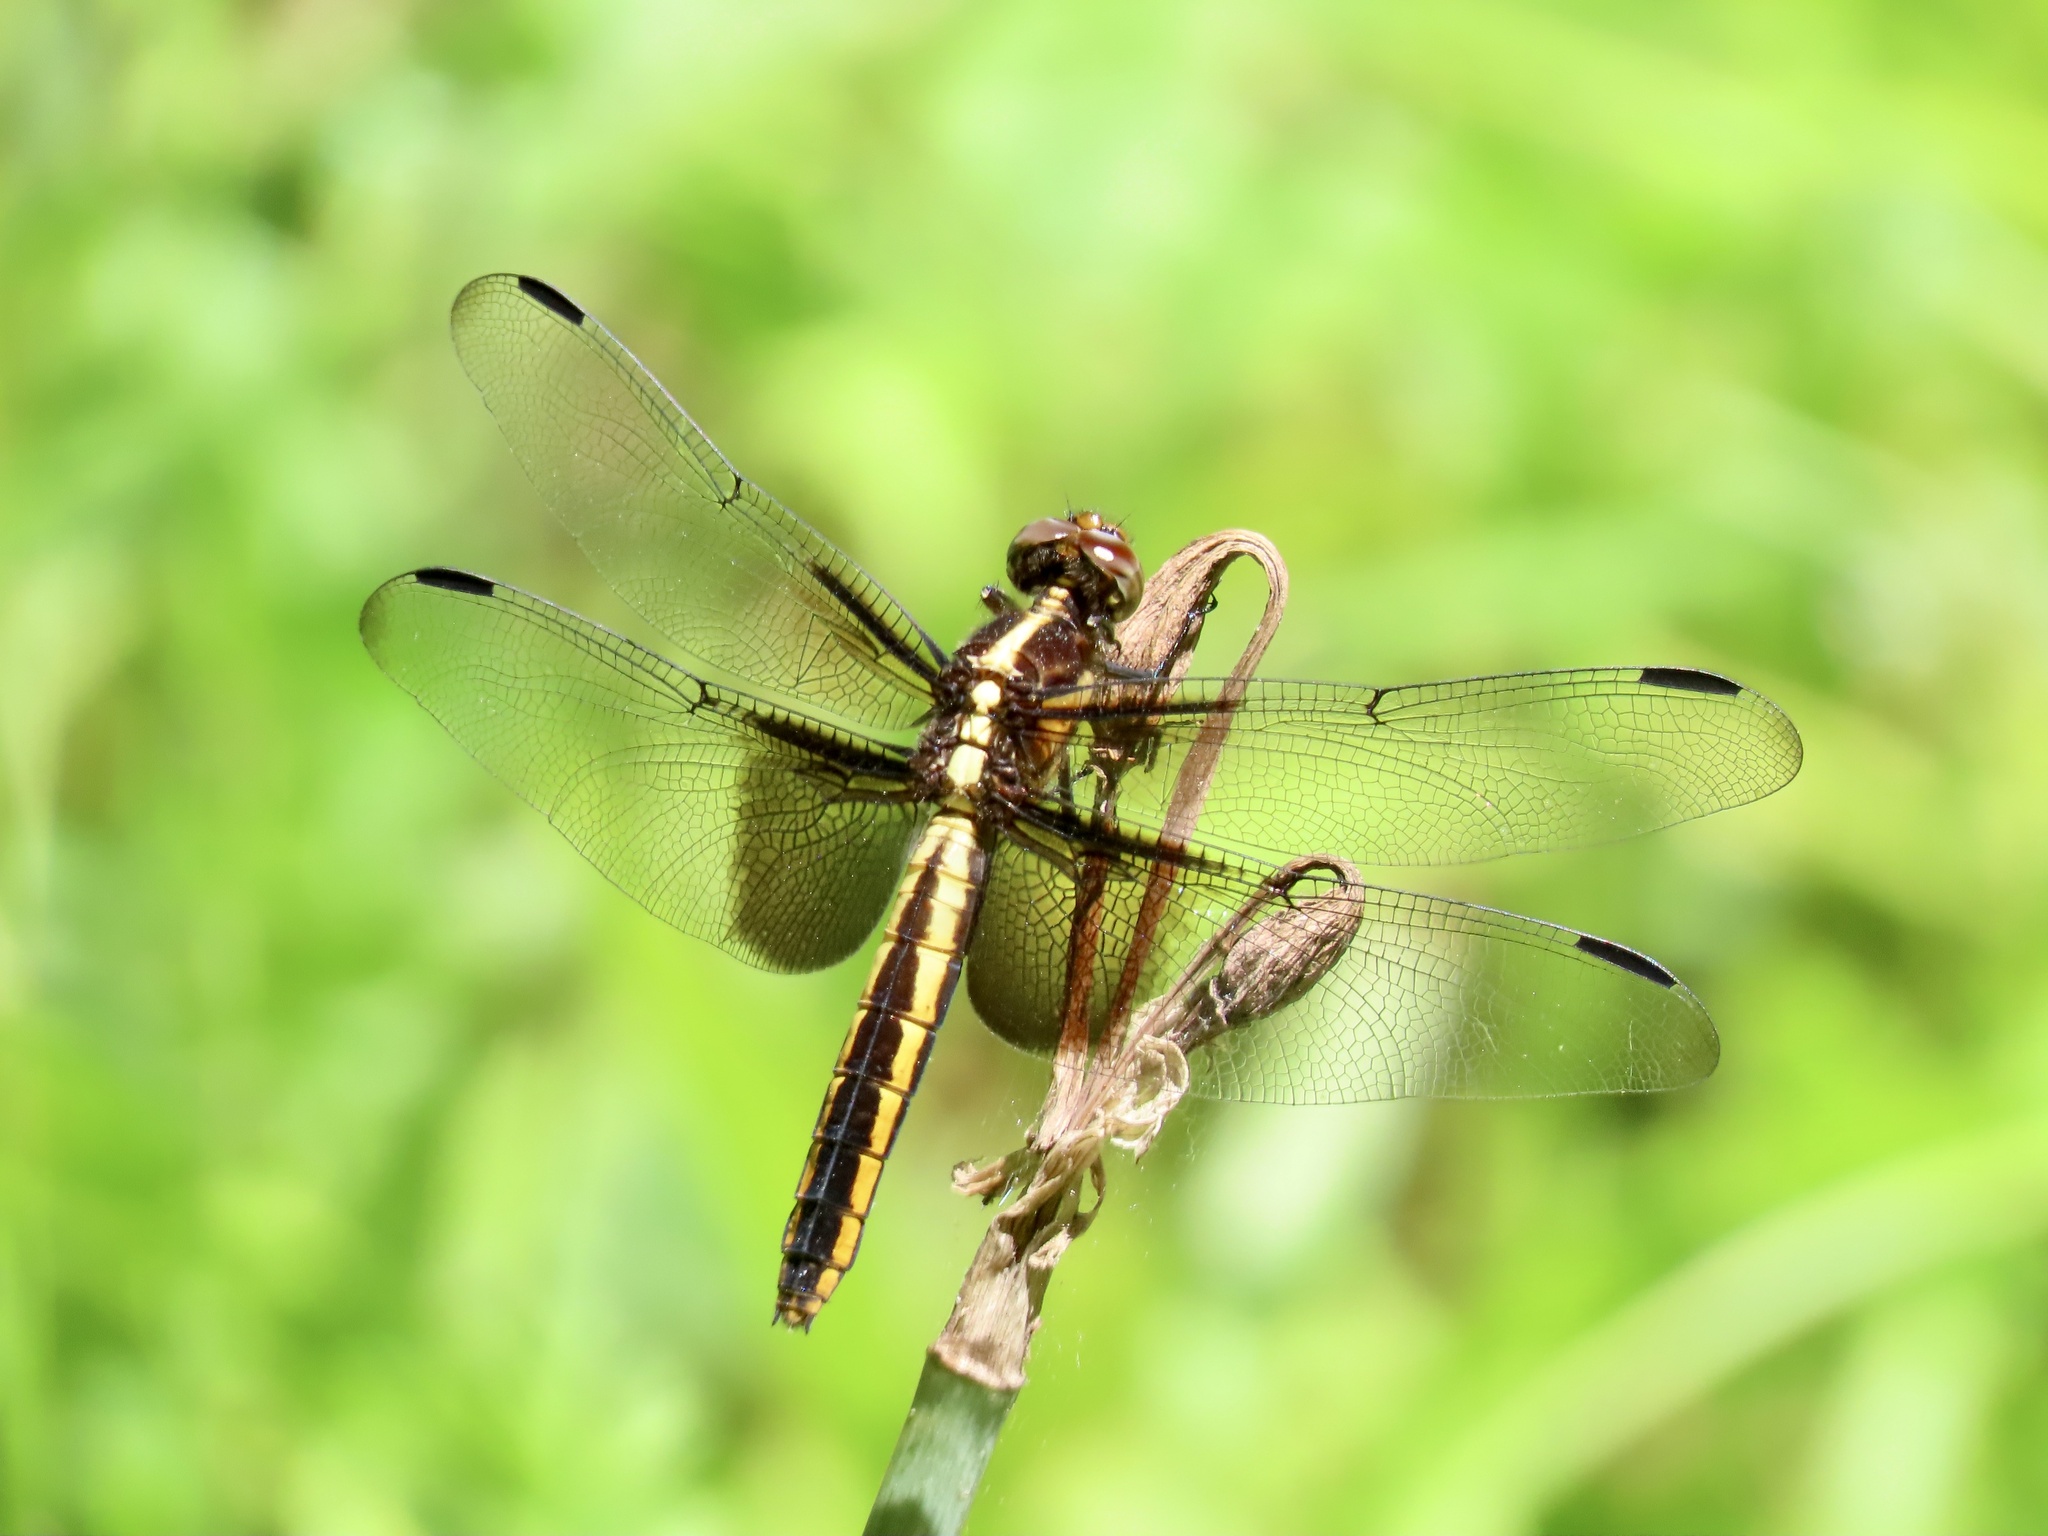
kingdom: Animalia
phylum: Arthropoda
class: Insecta
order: Odonata
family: Libellulidae
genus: Libellula
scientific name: Libellula luctuosa
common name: Widow skimmer
